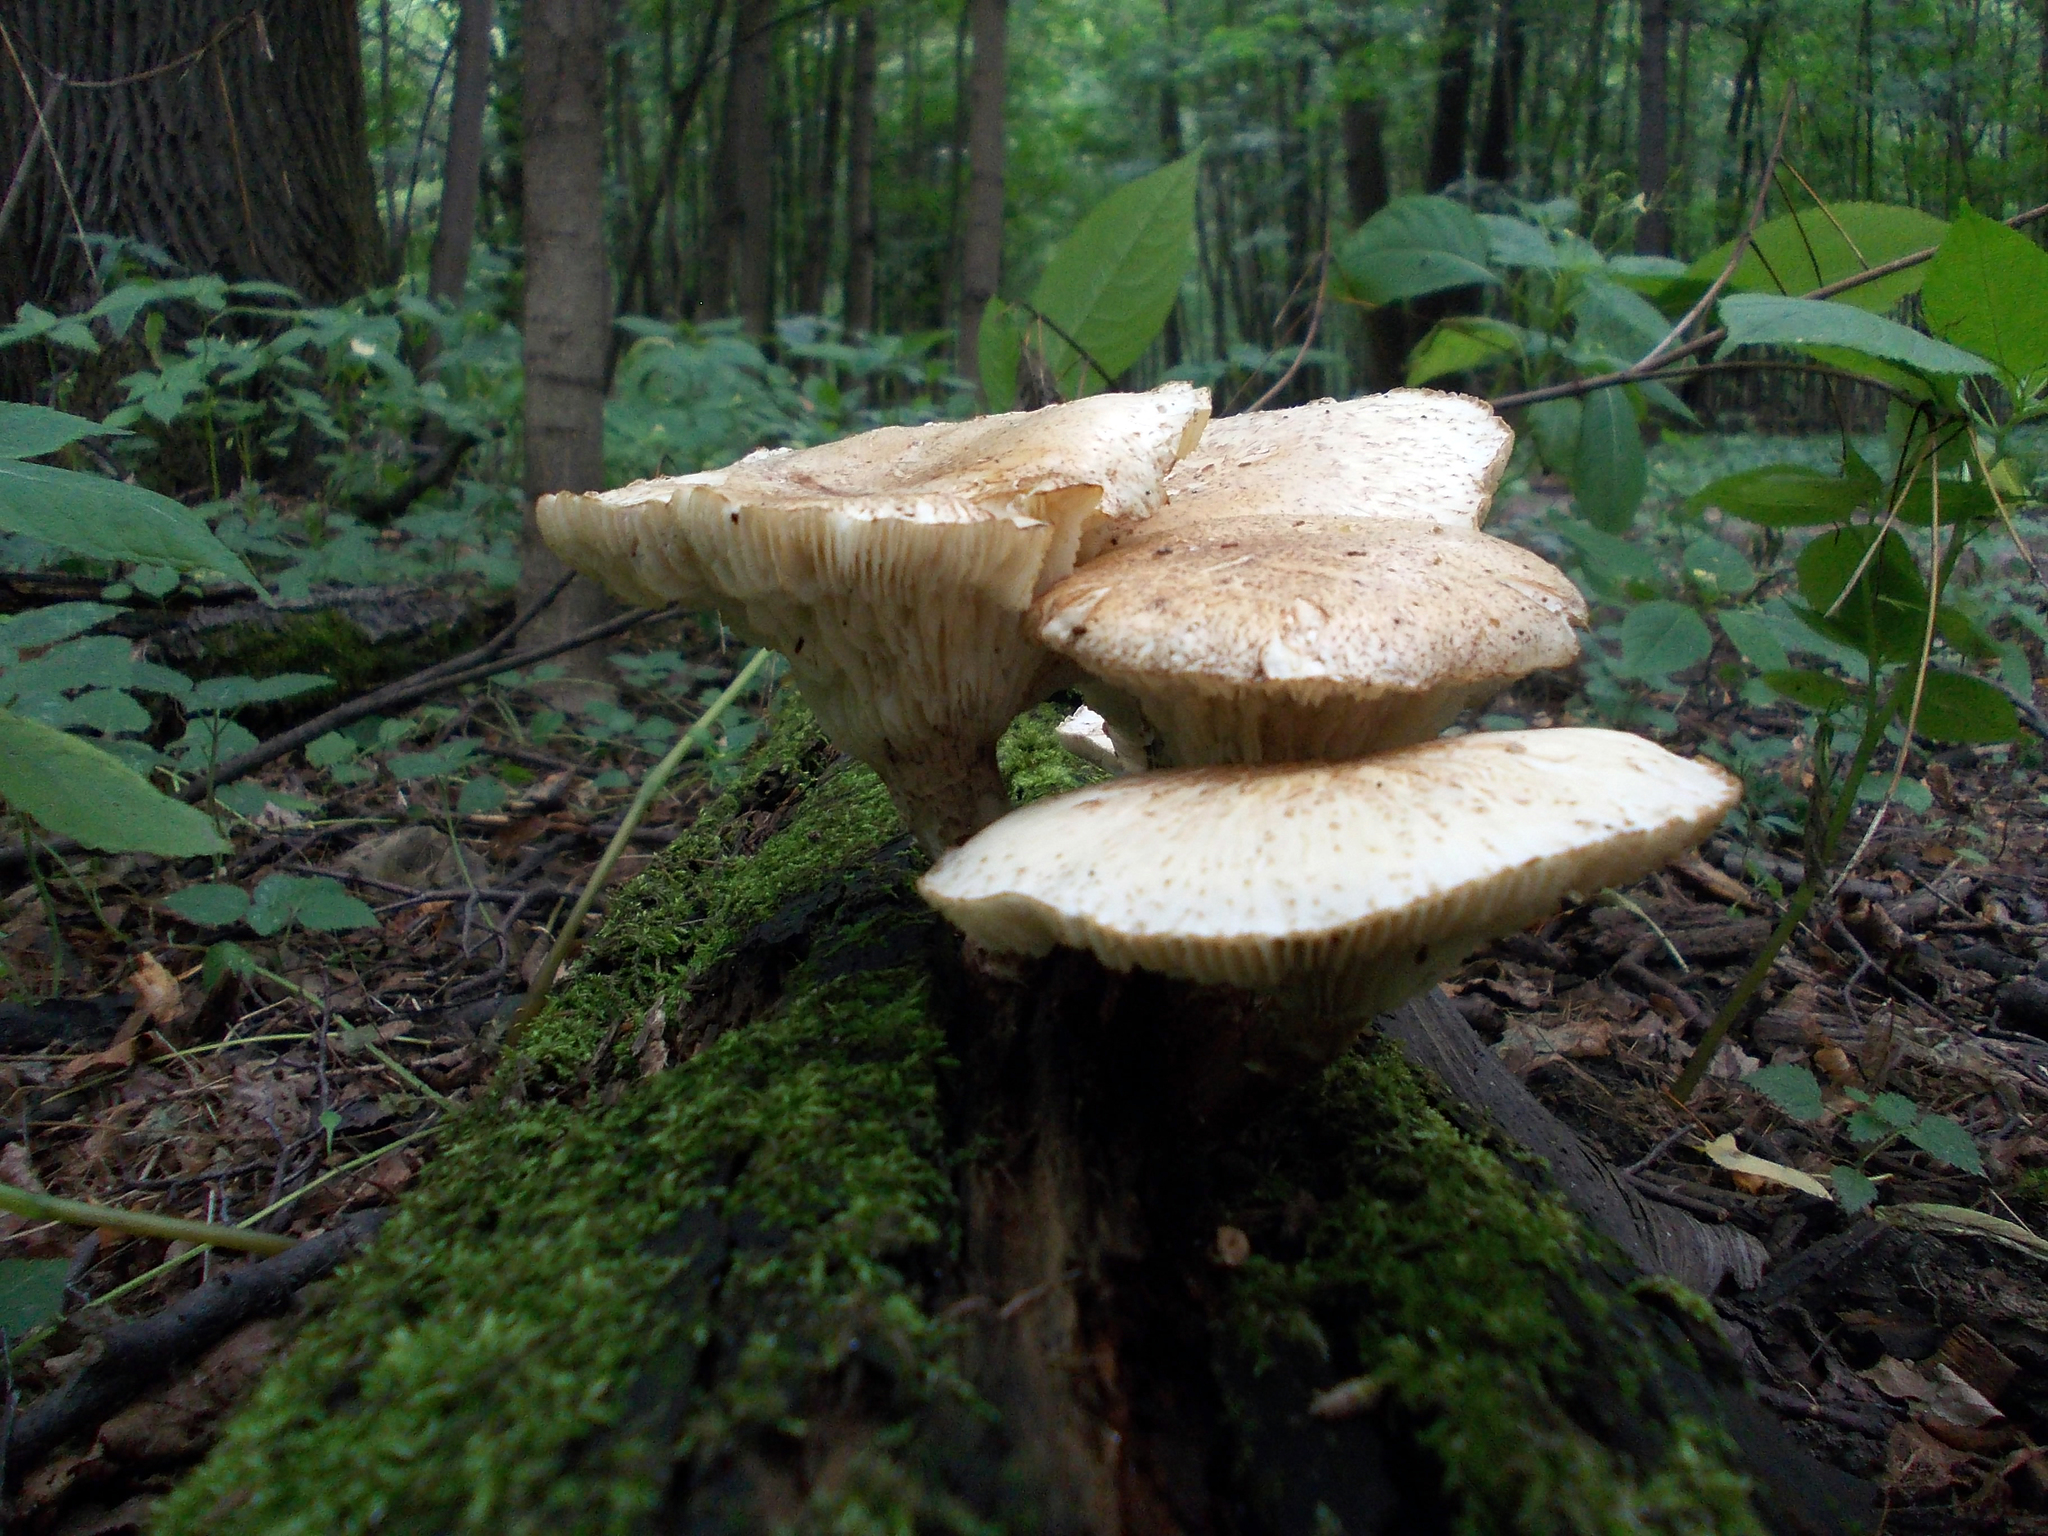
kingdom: Fungi
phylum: Basidiomycota
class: Agaricomycetes
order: Gloeophyllales
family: Gloeophyllaceae
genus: Neolentinus
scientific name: Neolentinus lepideus
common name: Scaly sawgill
